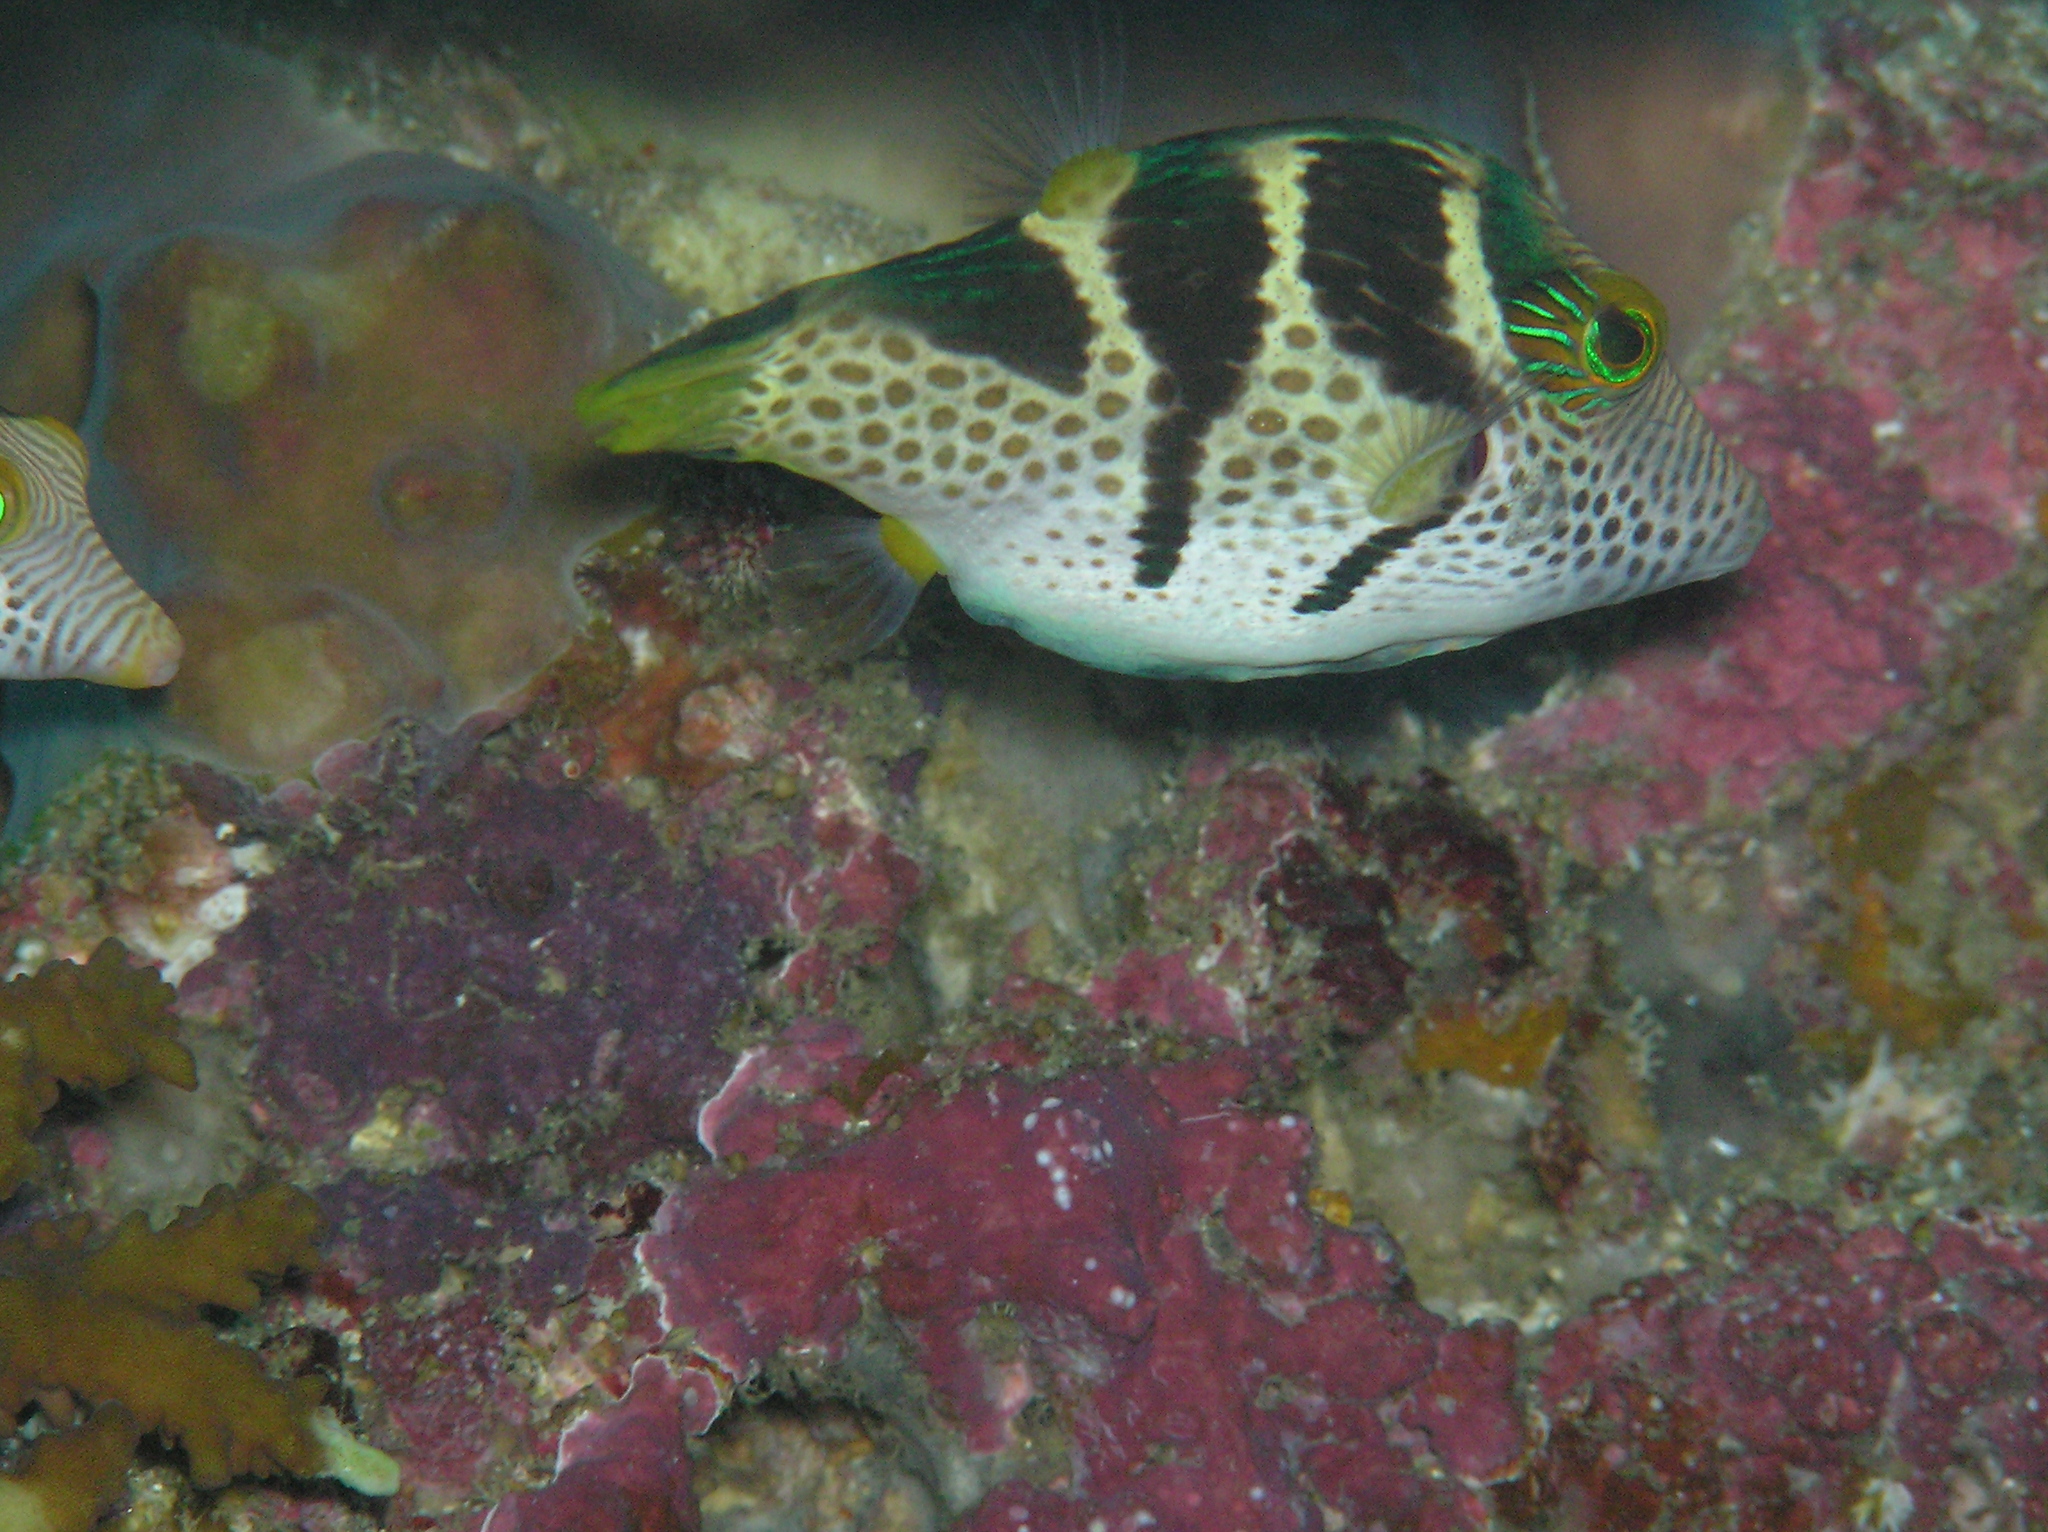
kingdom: Animalia
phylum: Chordata
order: Tetraodontiformes
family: Tetraodontidae
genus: Canthigaster
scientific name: Canthigaster valentini
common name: Banded toby
